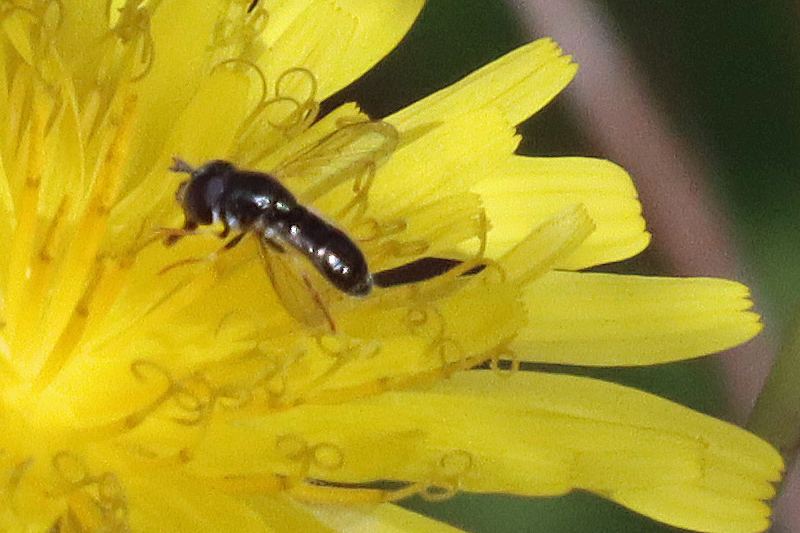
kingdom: Animalia
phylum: Arthropoda
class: Insecta
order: Diptera
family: Syrphidae
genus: Paragus
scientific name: Paragus haemorrhous
